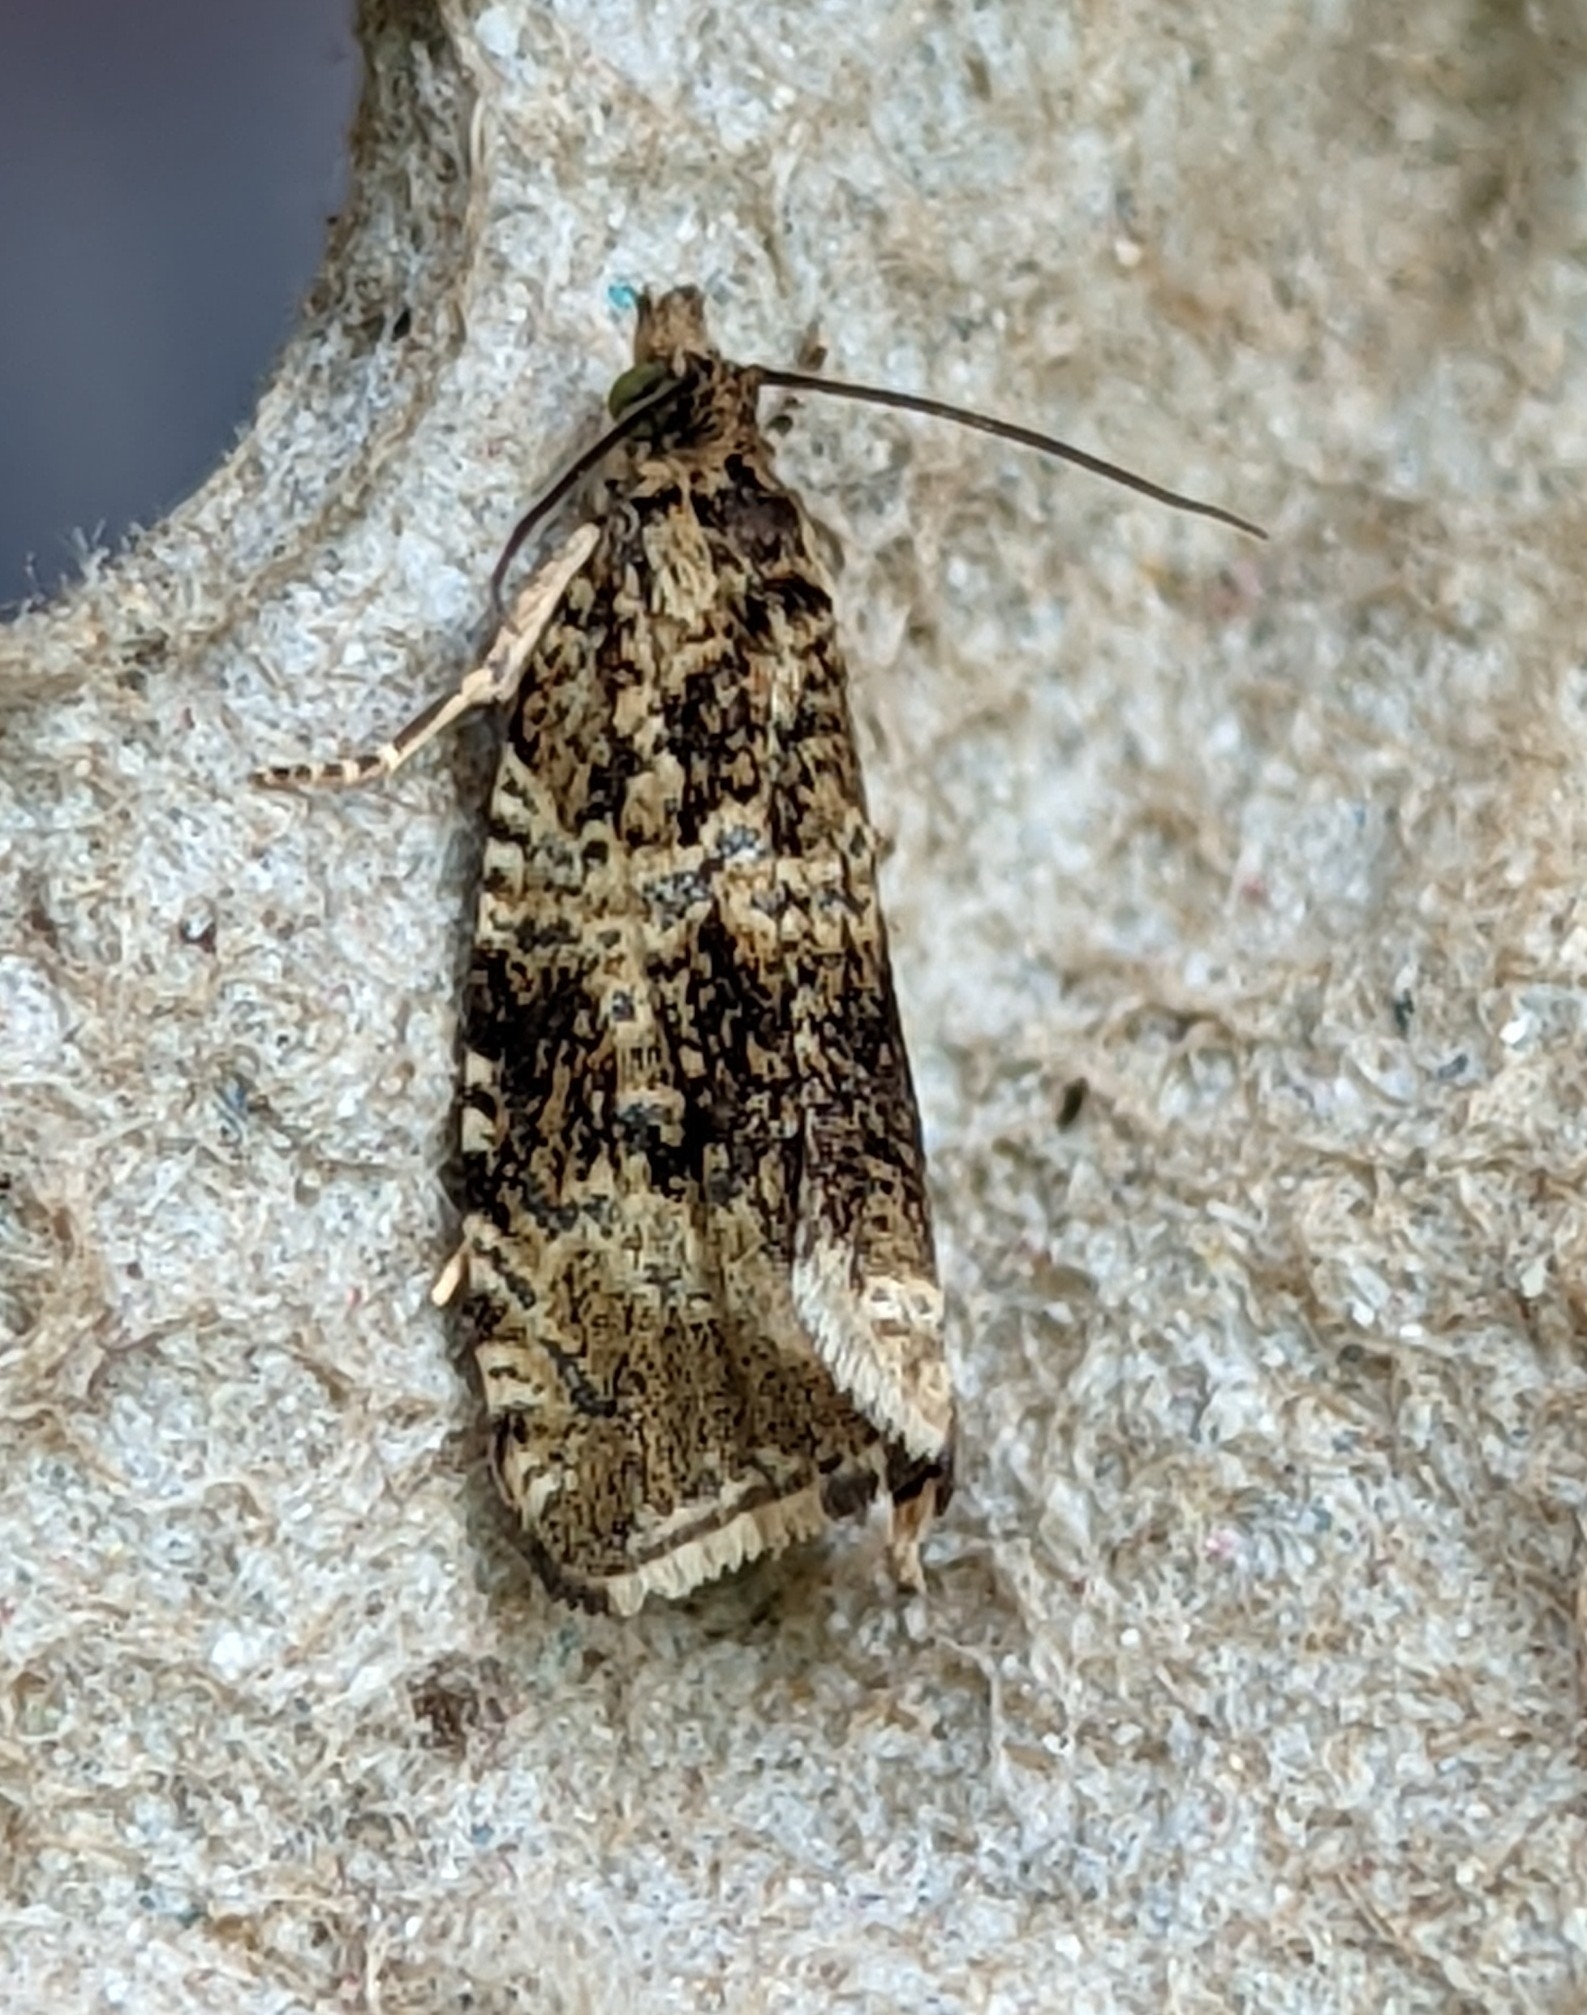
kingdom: Animalia
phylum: Arthropoda
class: Insecta
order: Lepidoptera
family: Tortricidae
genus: Syricoris
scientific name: Syricoris lacunana
